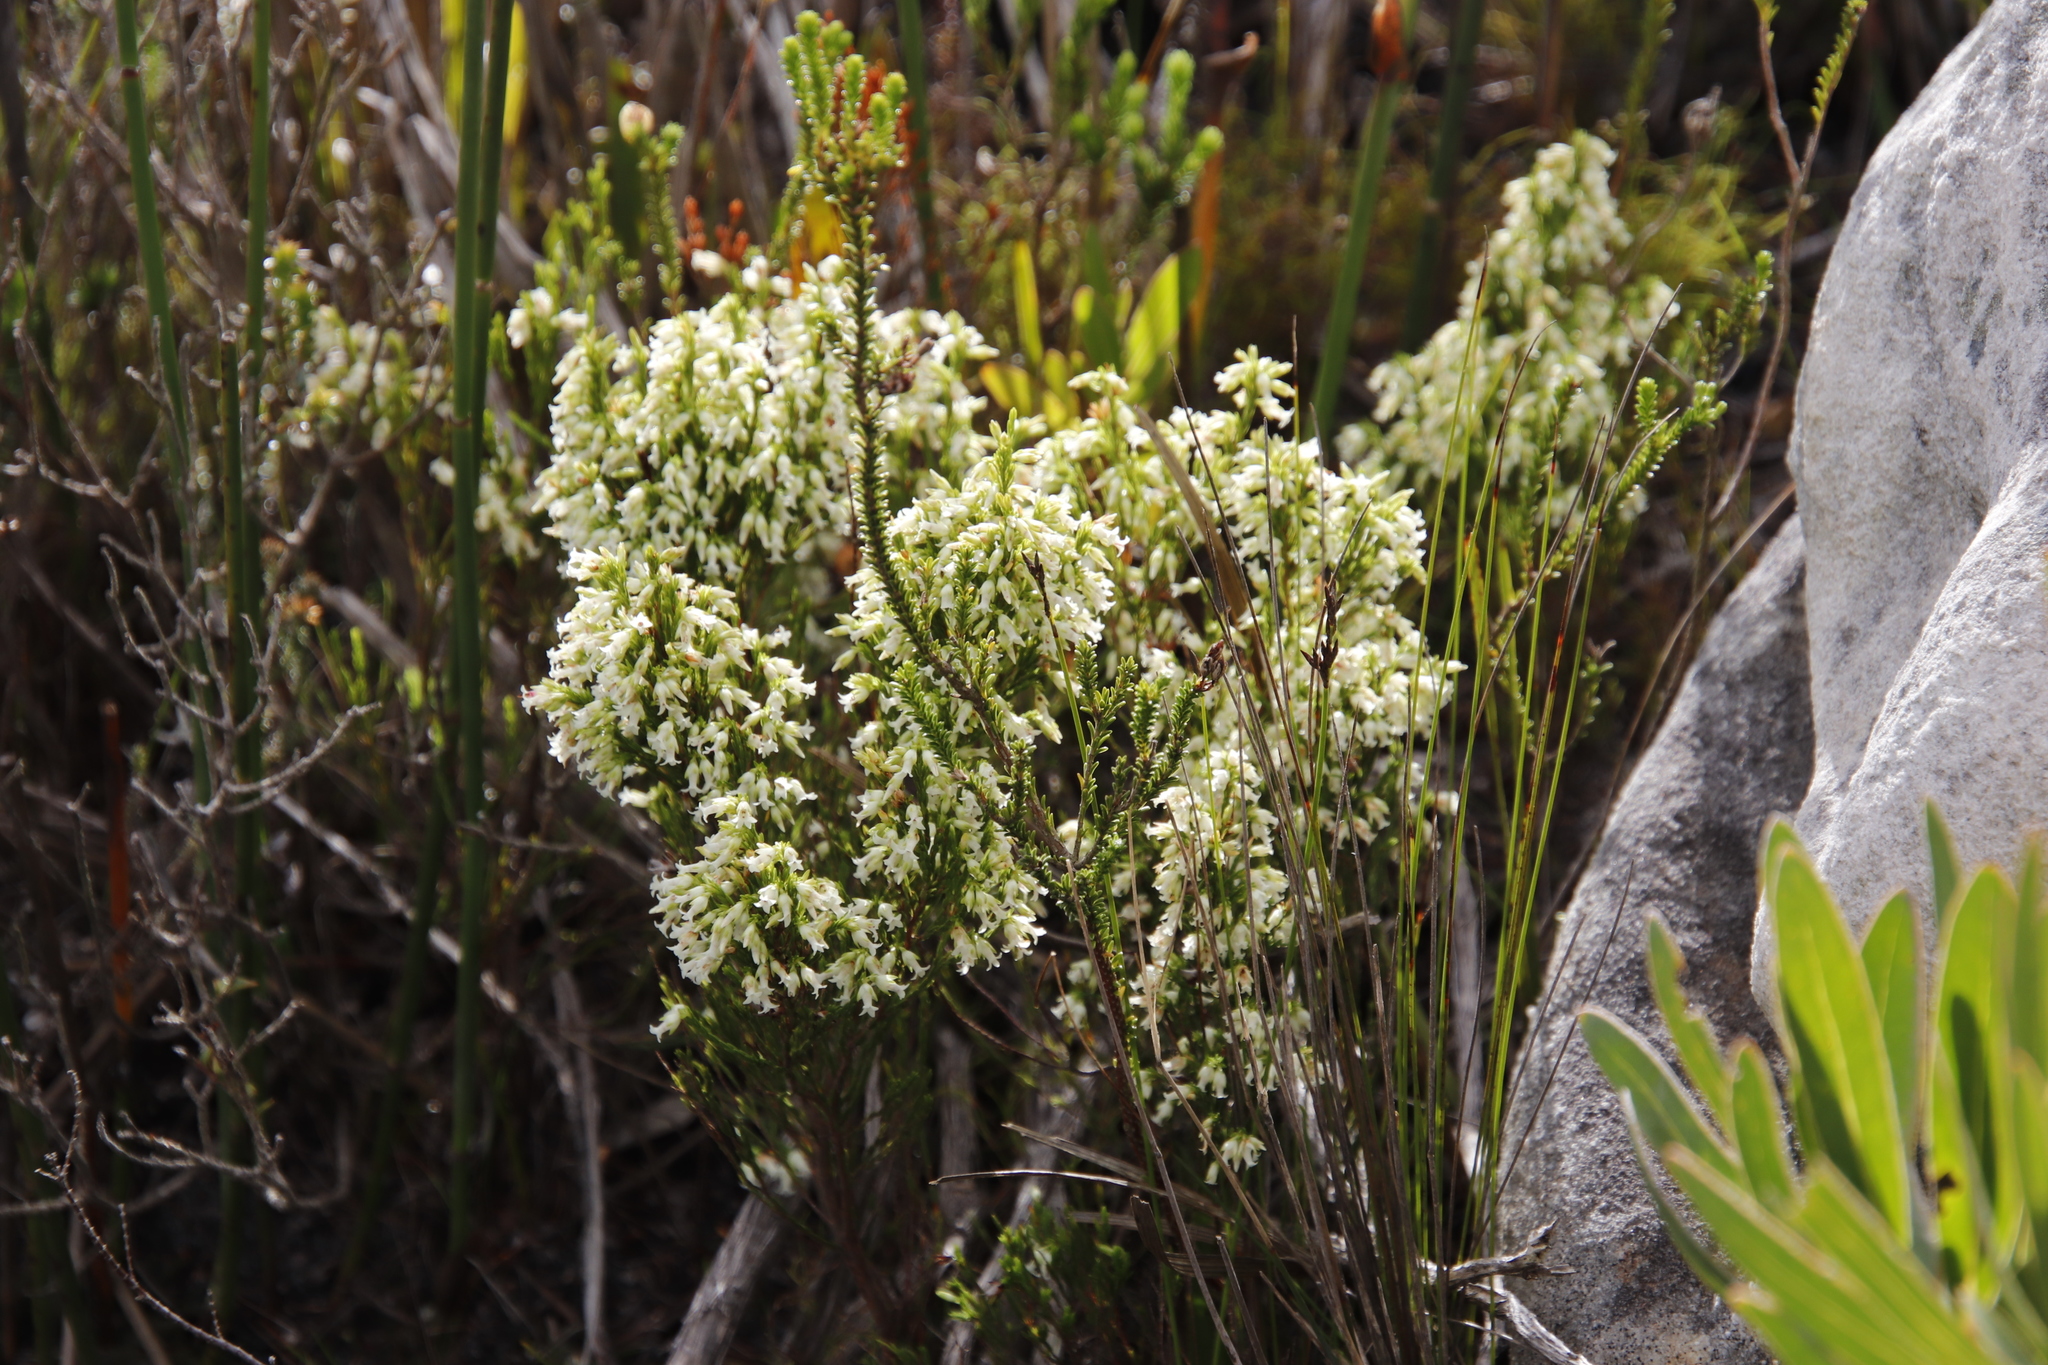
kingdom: Plantae
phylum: Tracheophyta
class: Magnoliopsida
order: Ericales
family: Ericaceae
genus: Erica
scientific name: Erica lutea
